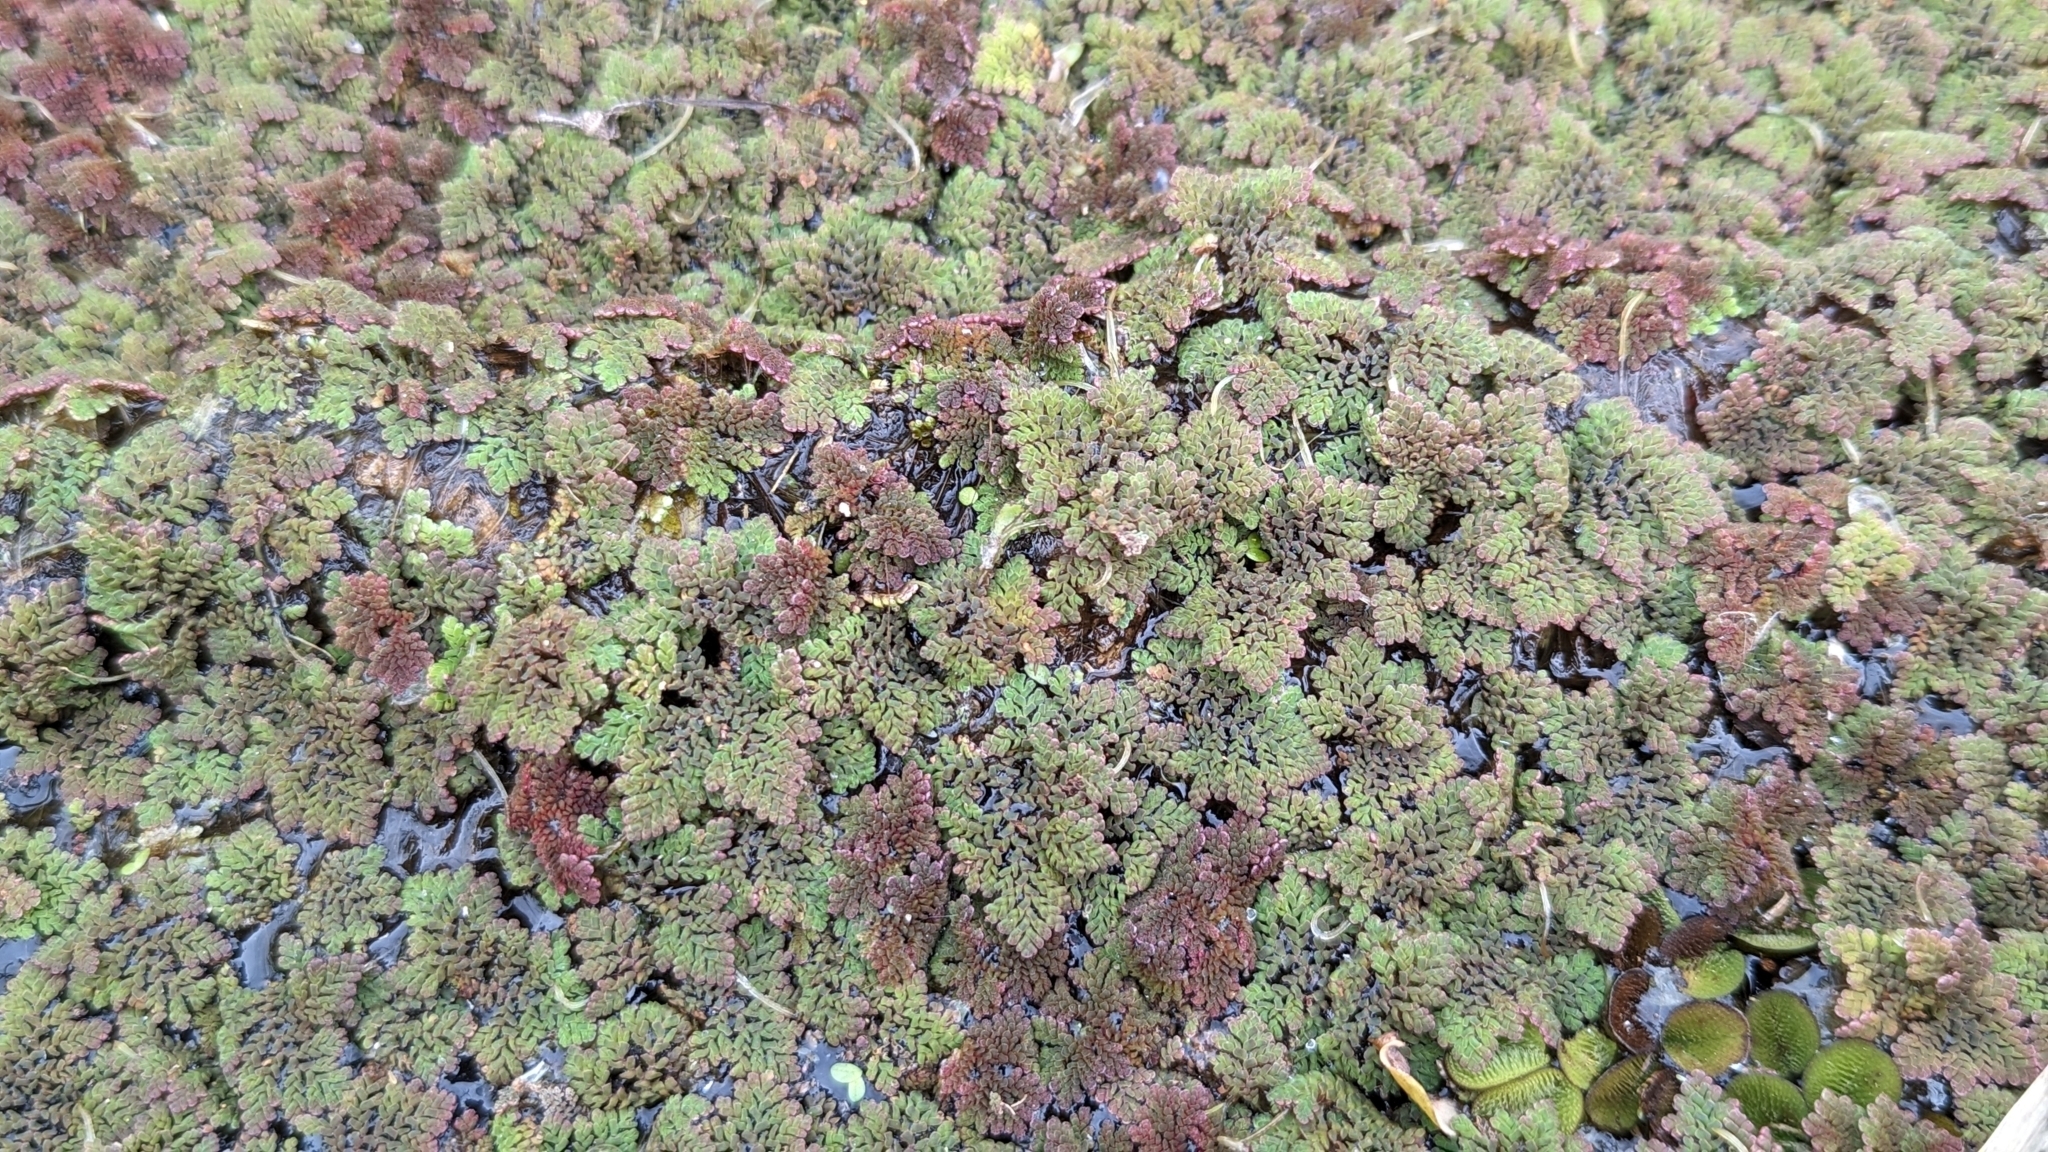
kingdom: Plantae
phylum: Tracheophyta
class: Polypodiopsida
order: Salviniales
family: Salviniaceae
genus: Azolla
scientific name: Azolla pinnata
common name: Ferny azolla
